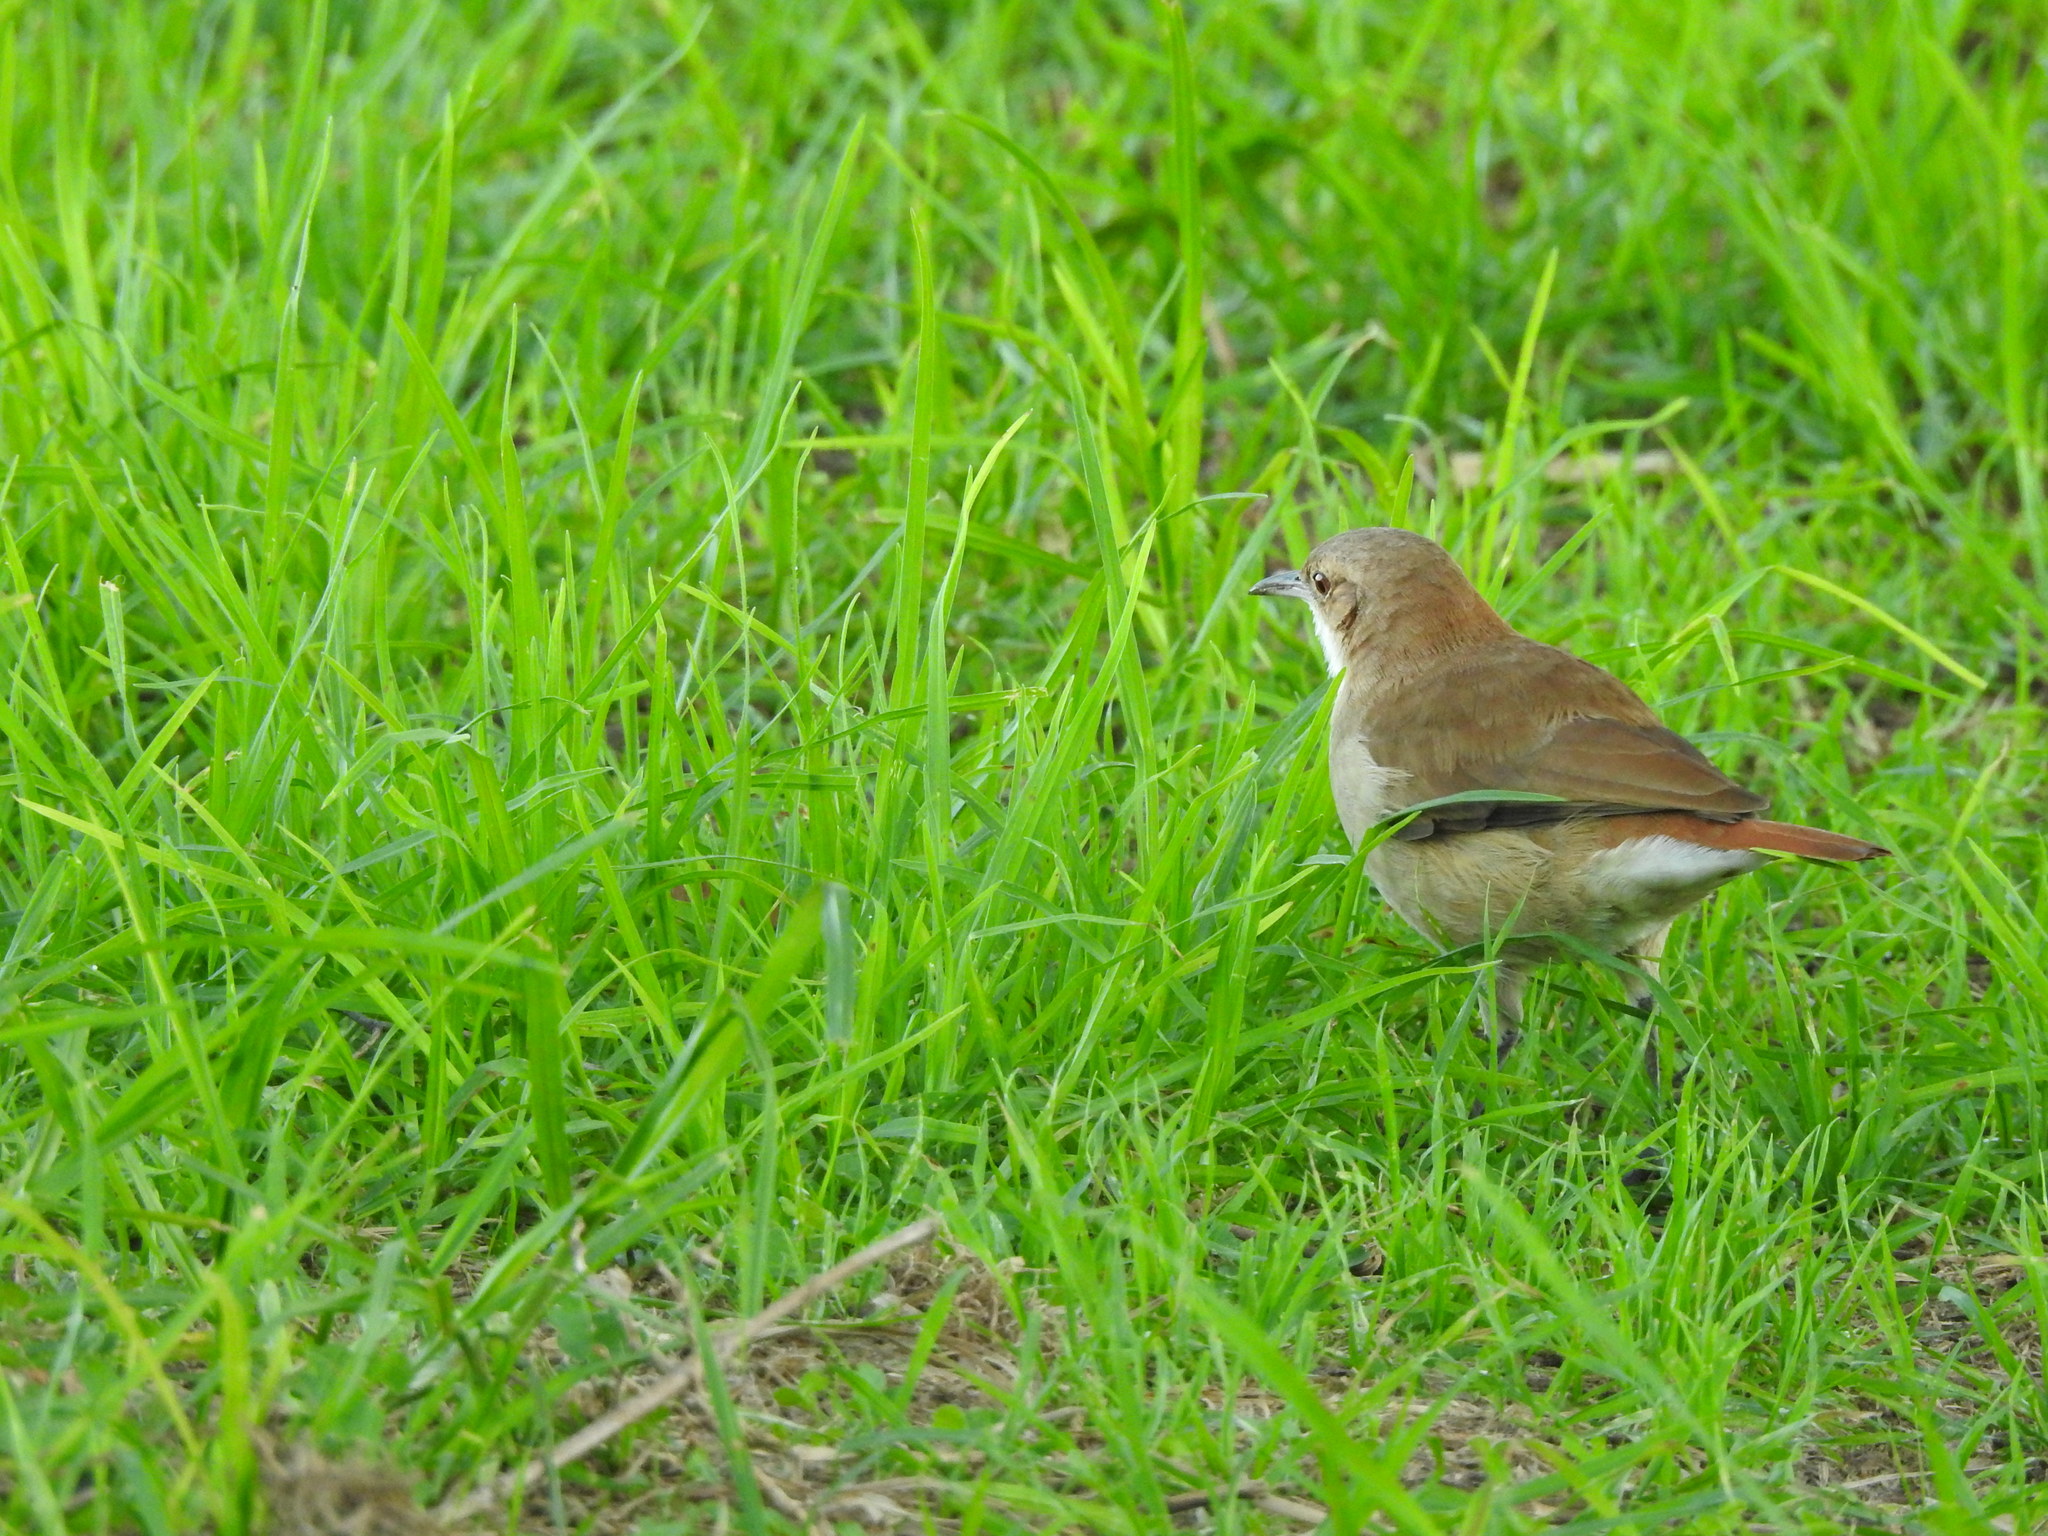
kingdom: Animalia
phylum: Chordata
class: Aves
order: Passeriformes
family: Furnariidae
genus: Furnarius
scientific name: Furnarius rufus
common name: Rufous hornero
